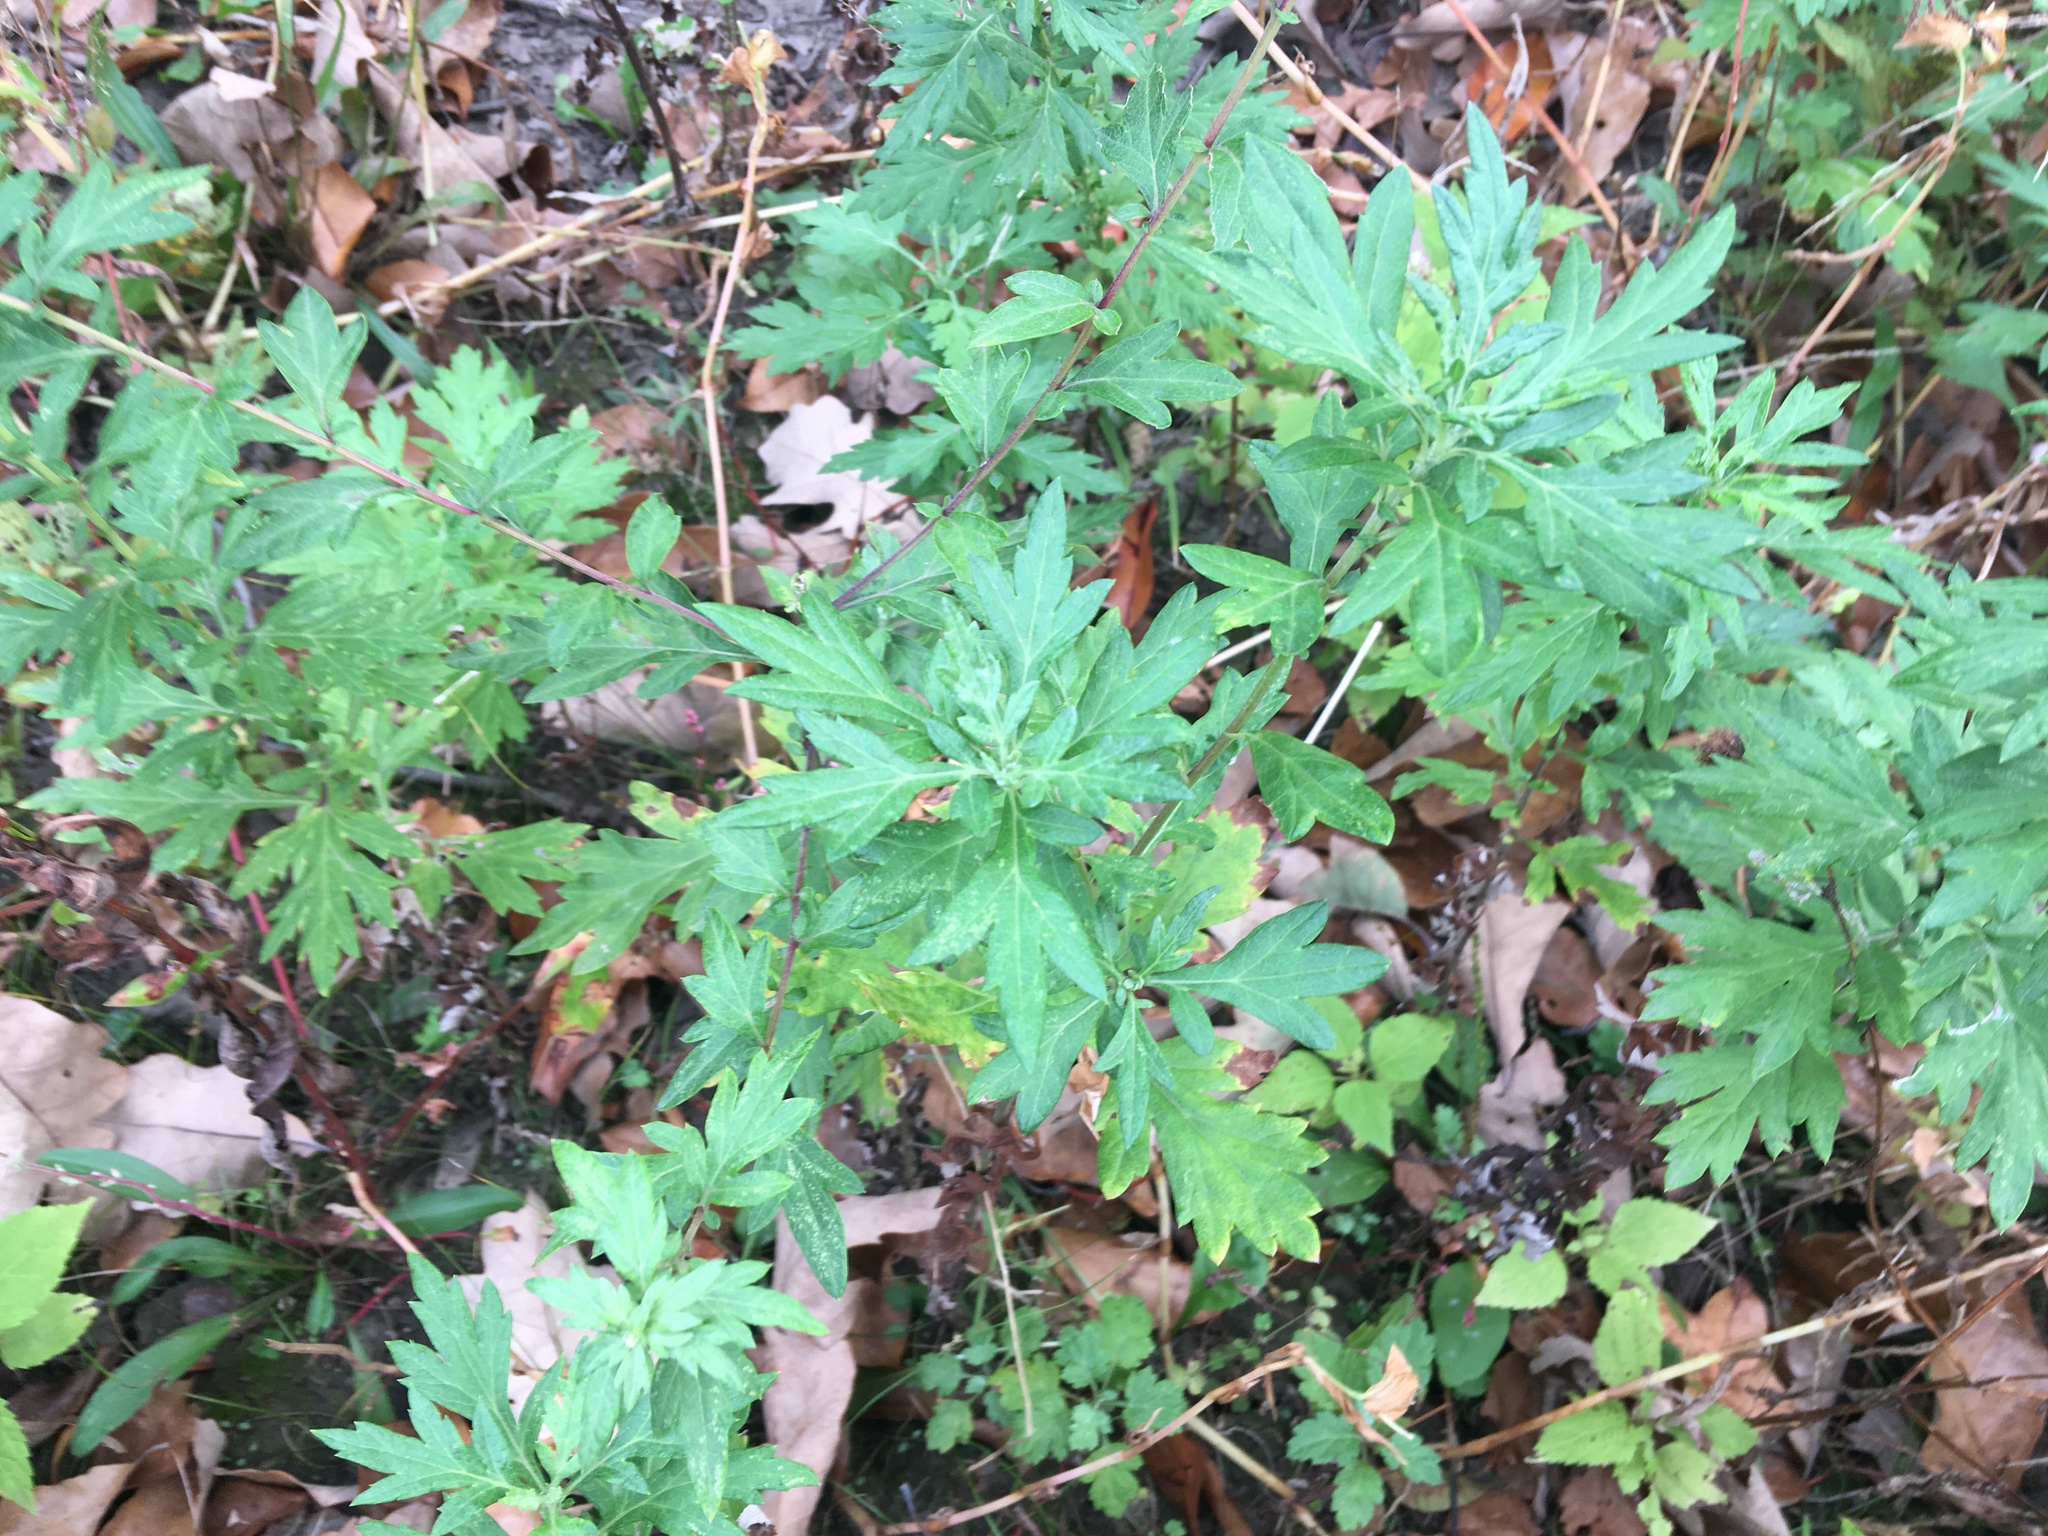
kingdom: Plantae
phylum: Tracheophyta
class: Magnoliopsida
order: Asterales
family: Asteraceae
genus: Artemisia
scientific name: Artemisia vulgaris
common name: Mugwort
